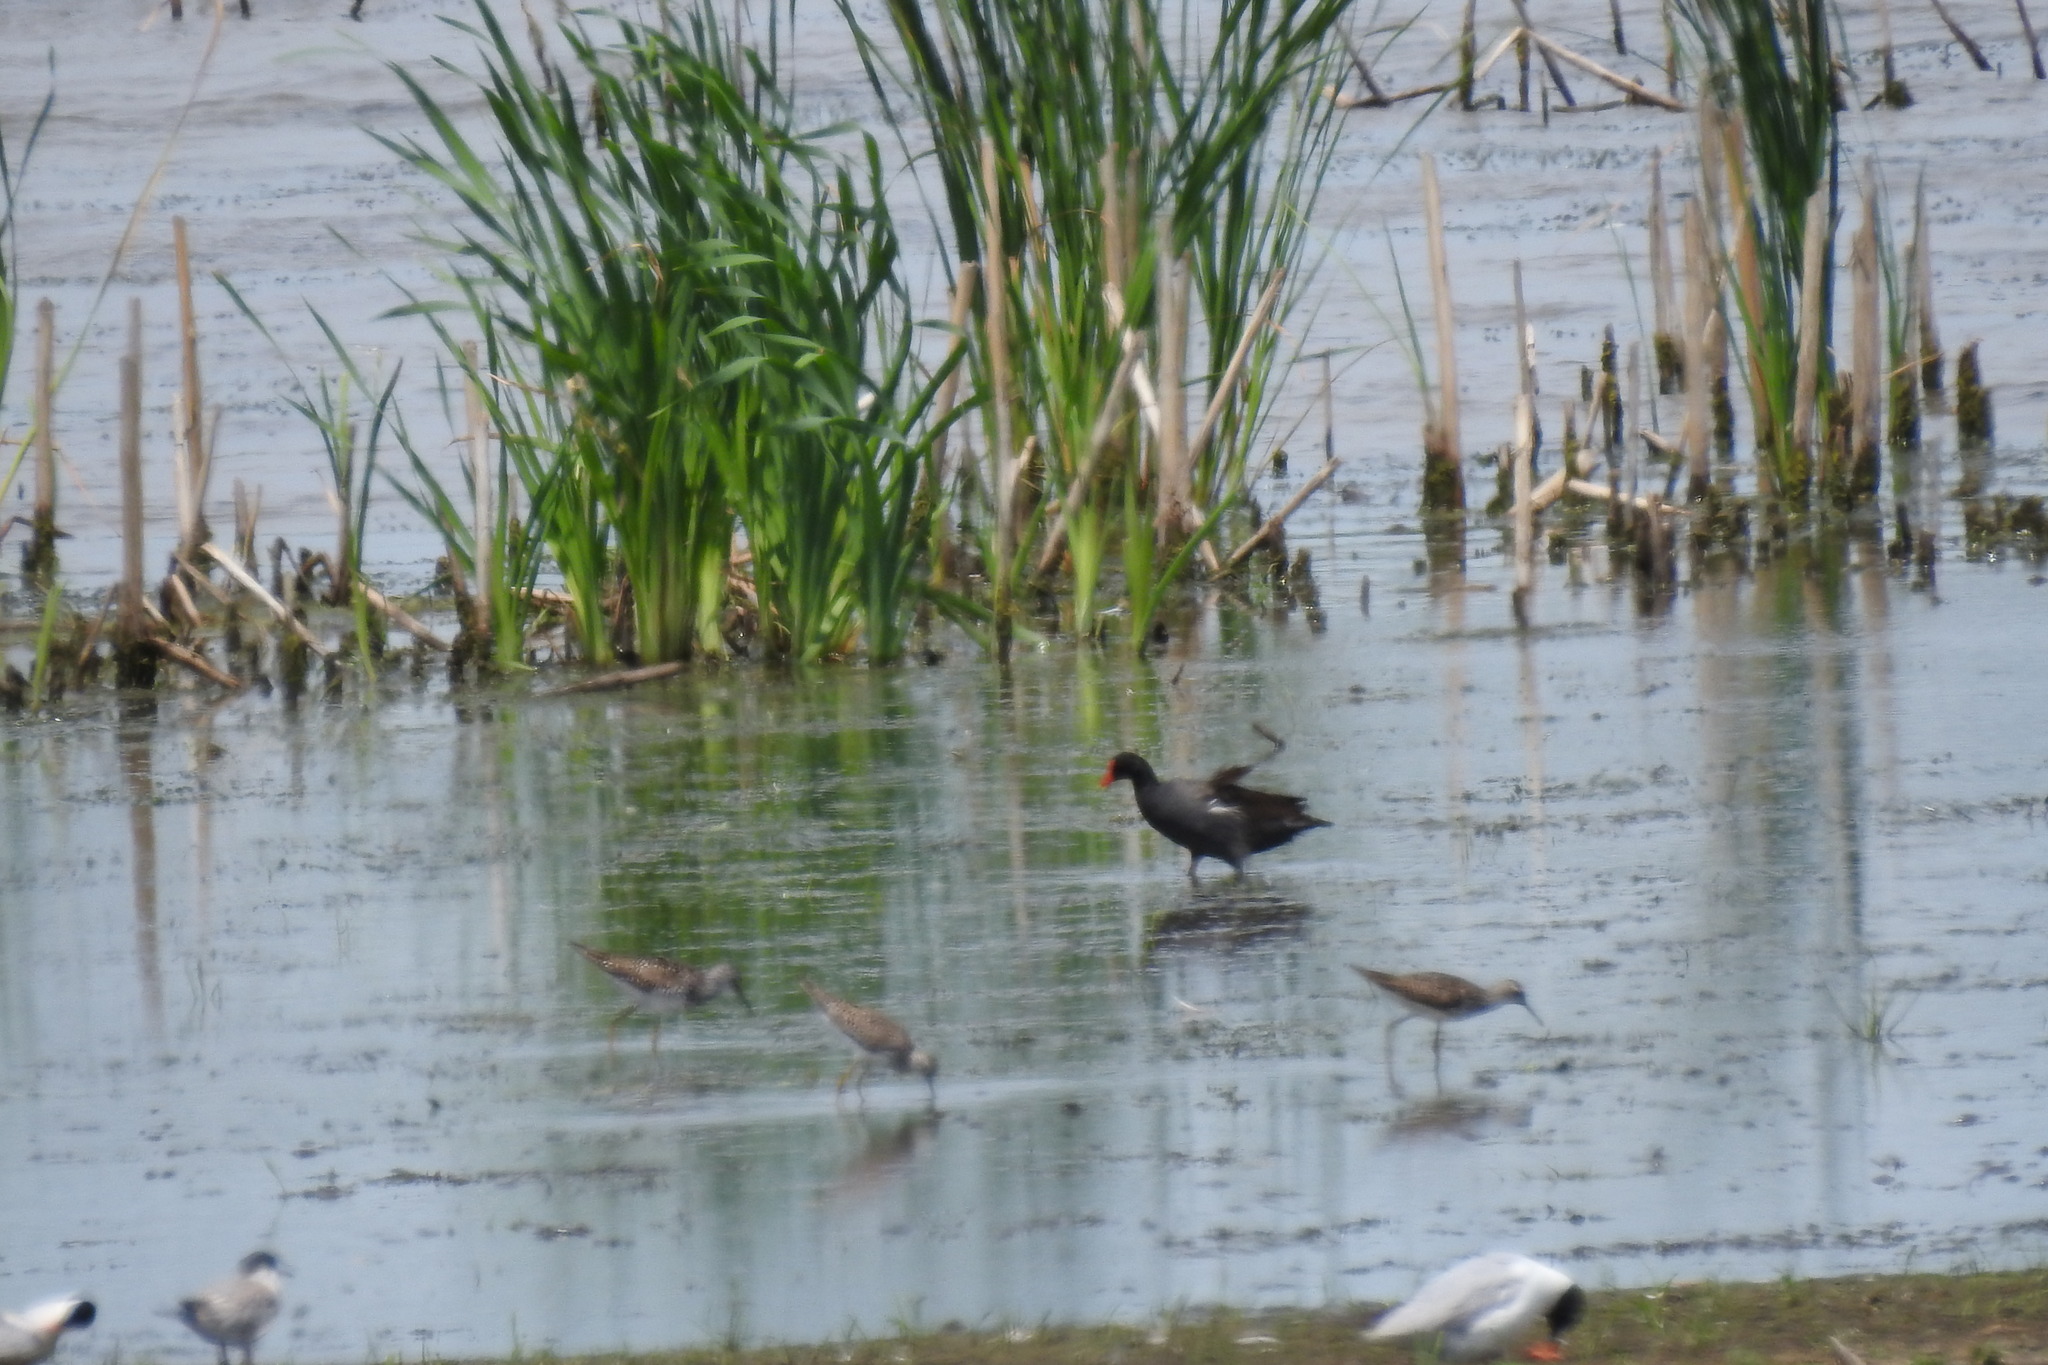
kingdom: Animalia
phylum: Chordata
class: Aves
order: Gruiformes
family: Rallidae
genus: Gallinula
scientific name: Gallinula chloropus
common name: Common moorhen
